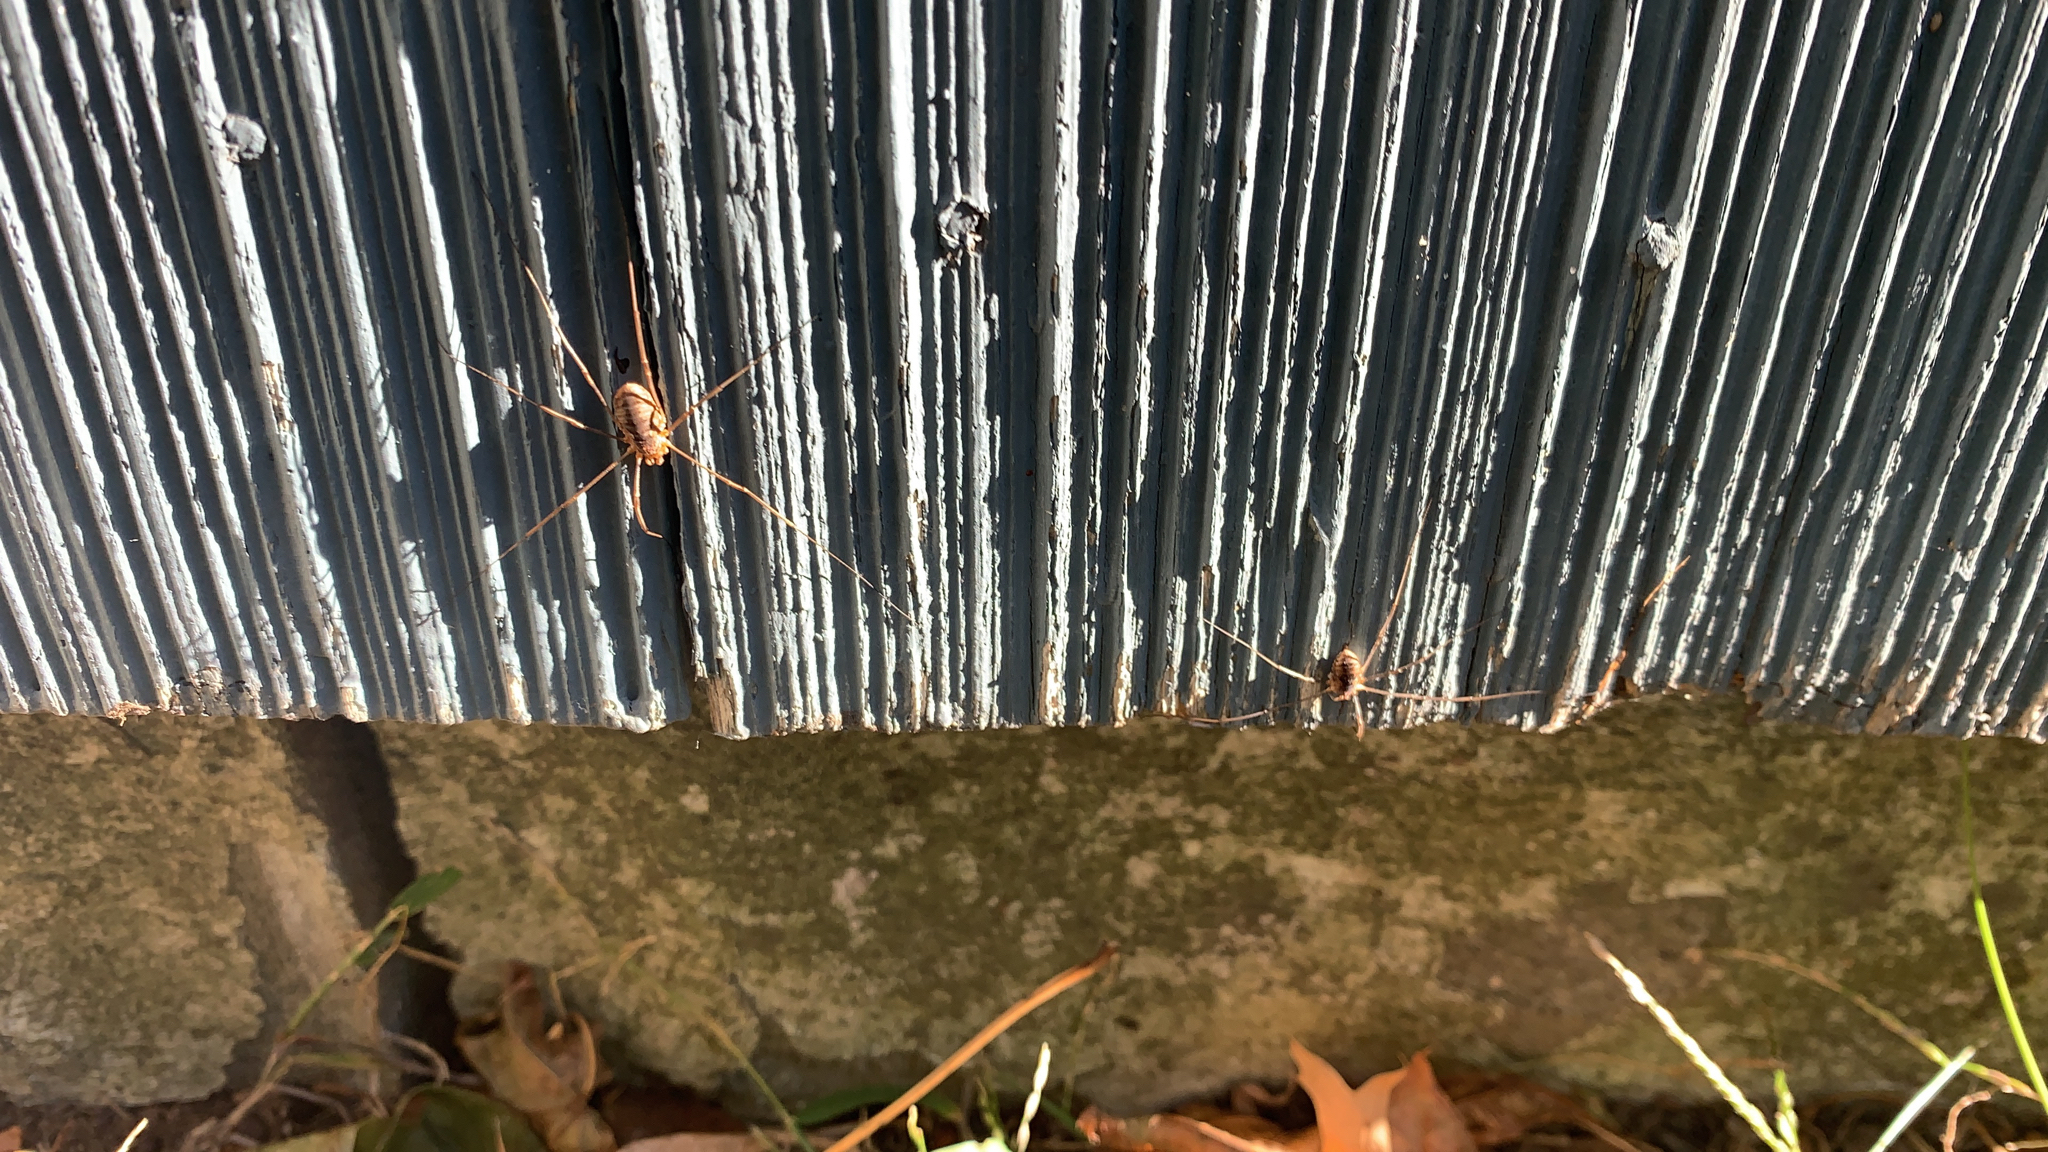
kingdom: Animalia
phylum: Arthropoda
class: Arachnida
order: Opiliones
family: Phalangiidae
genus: Phalangium
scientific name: Phalangium opilio
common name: Daddy longleg
